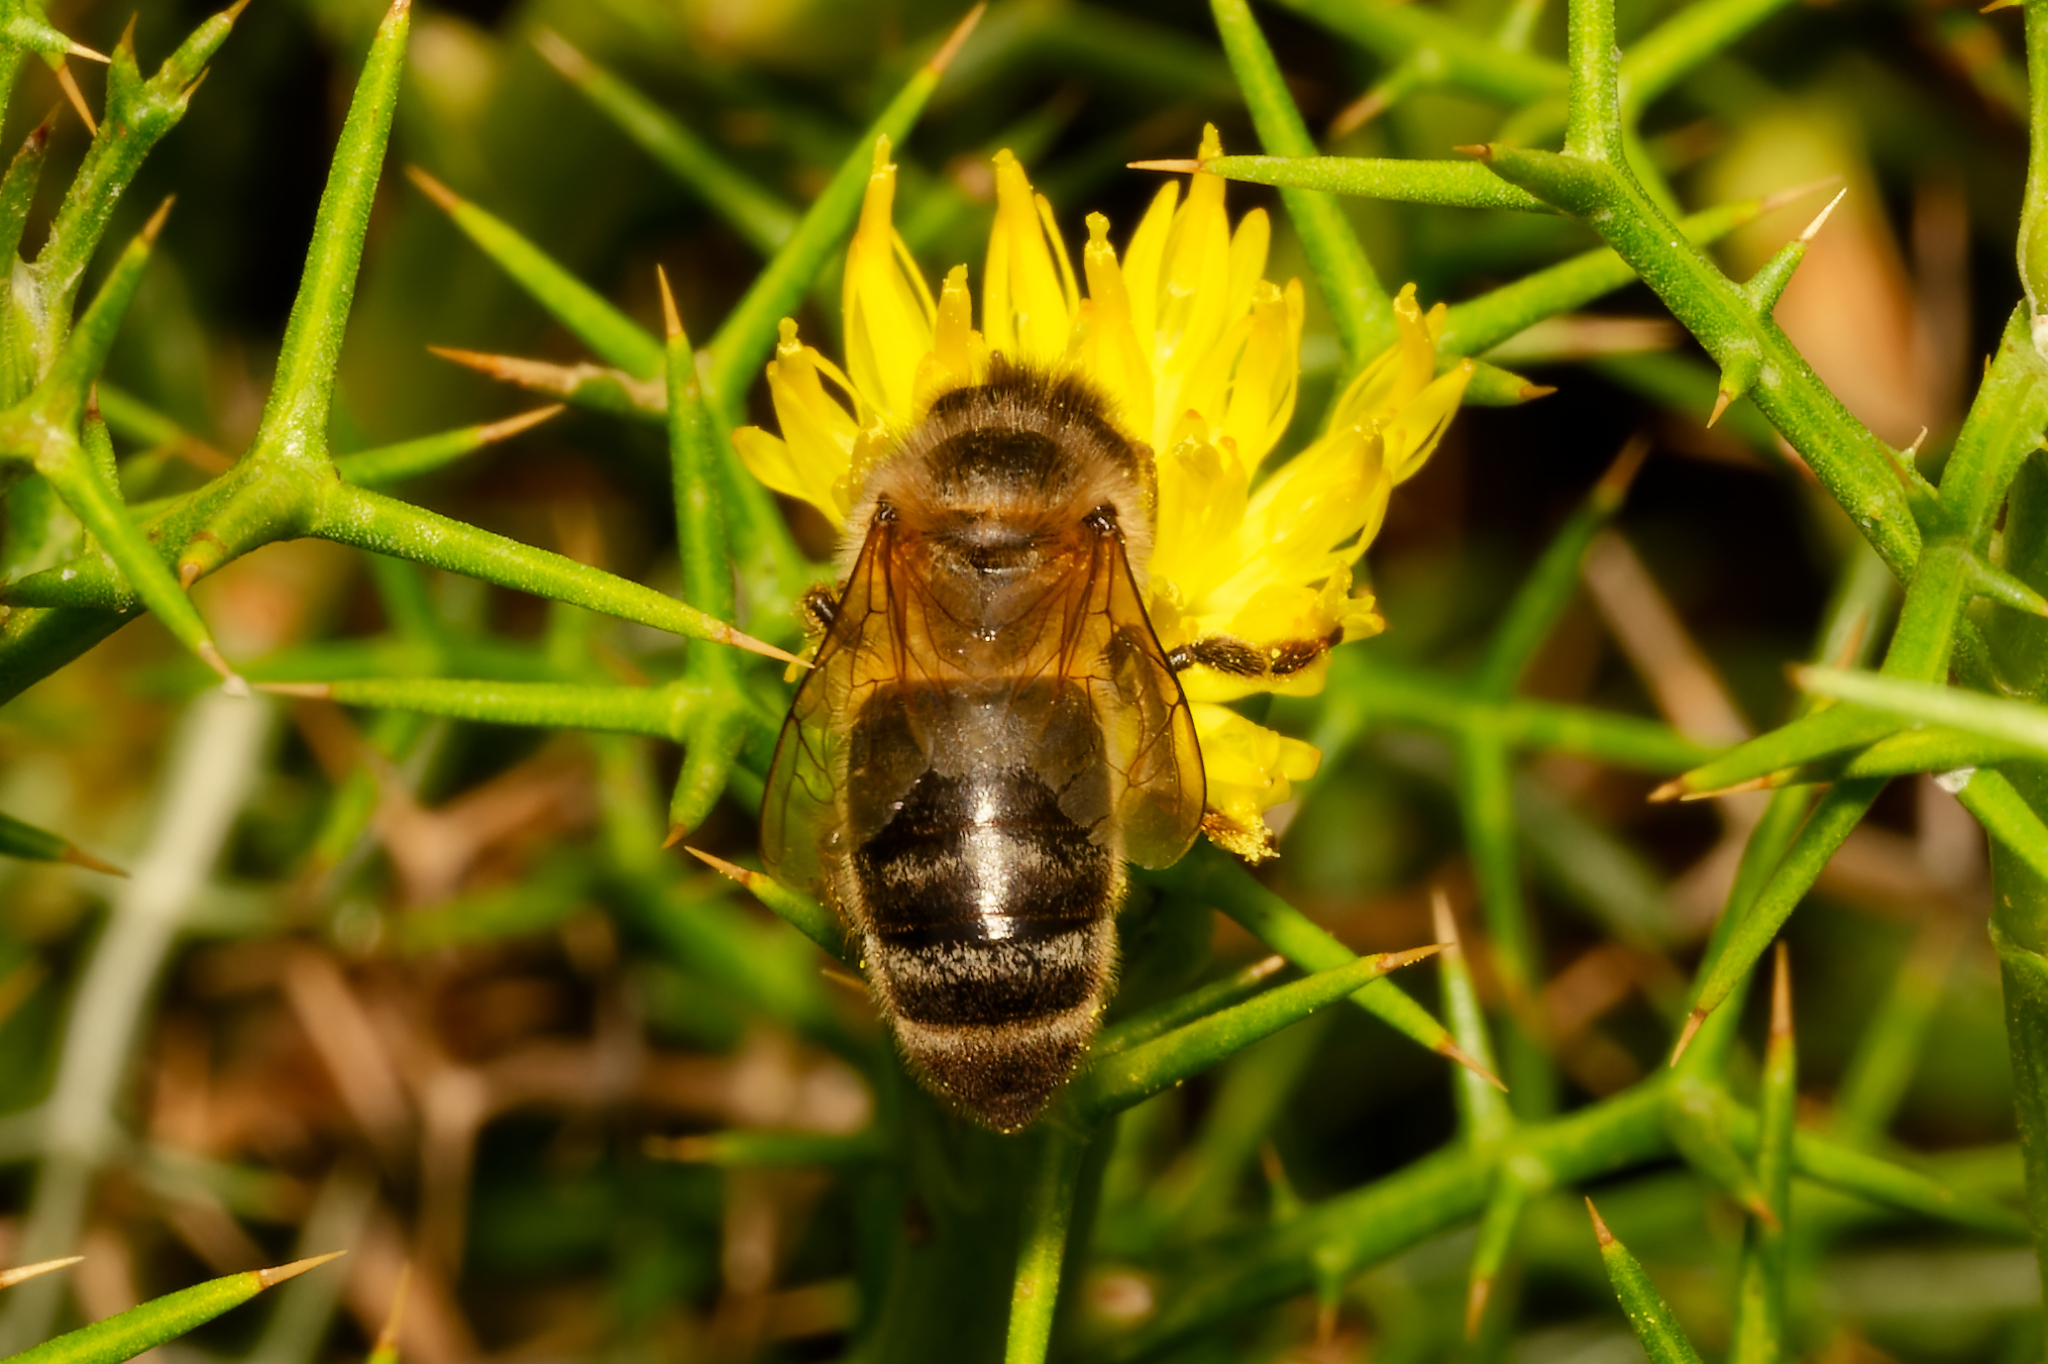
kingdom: Animalia
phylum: Arthropoda
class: Insecta
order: Hymenoptera
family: Apidae
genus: Apis
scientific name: Apis mellifera
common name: Honey bee
